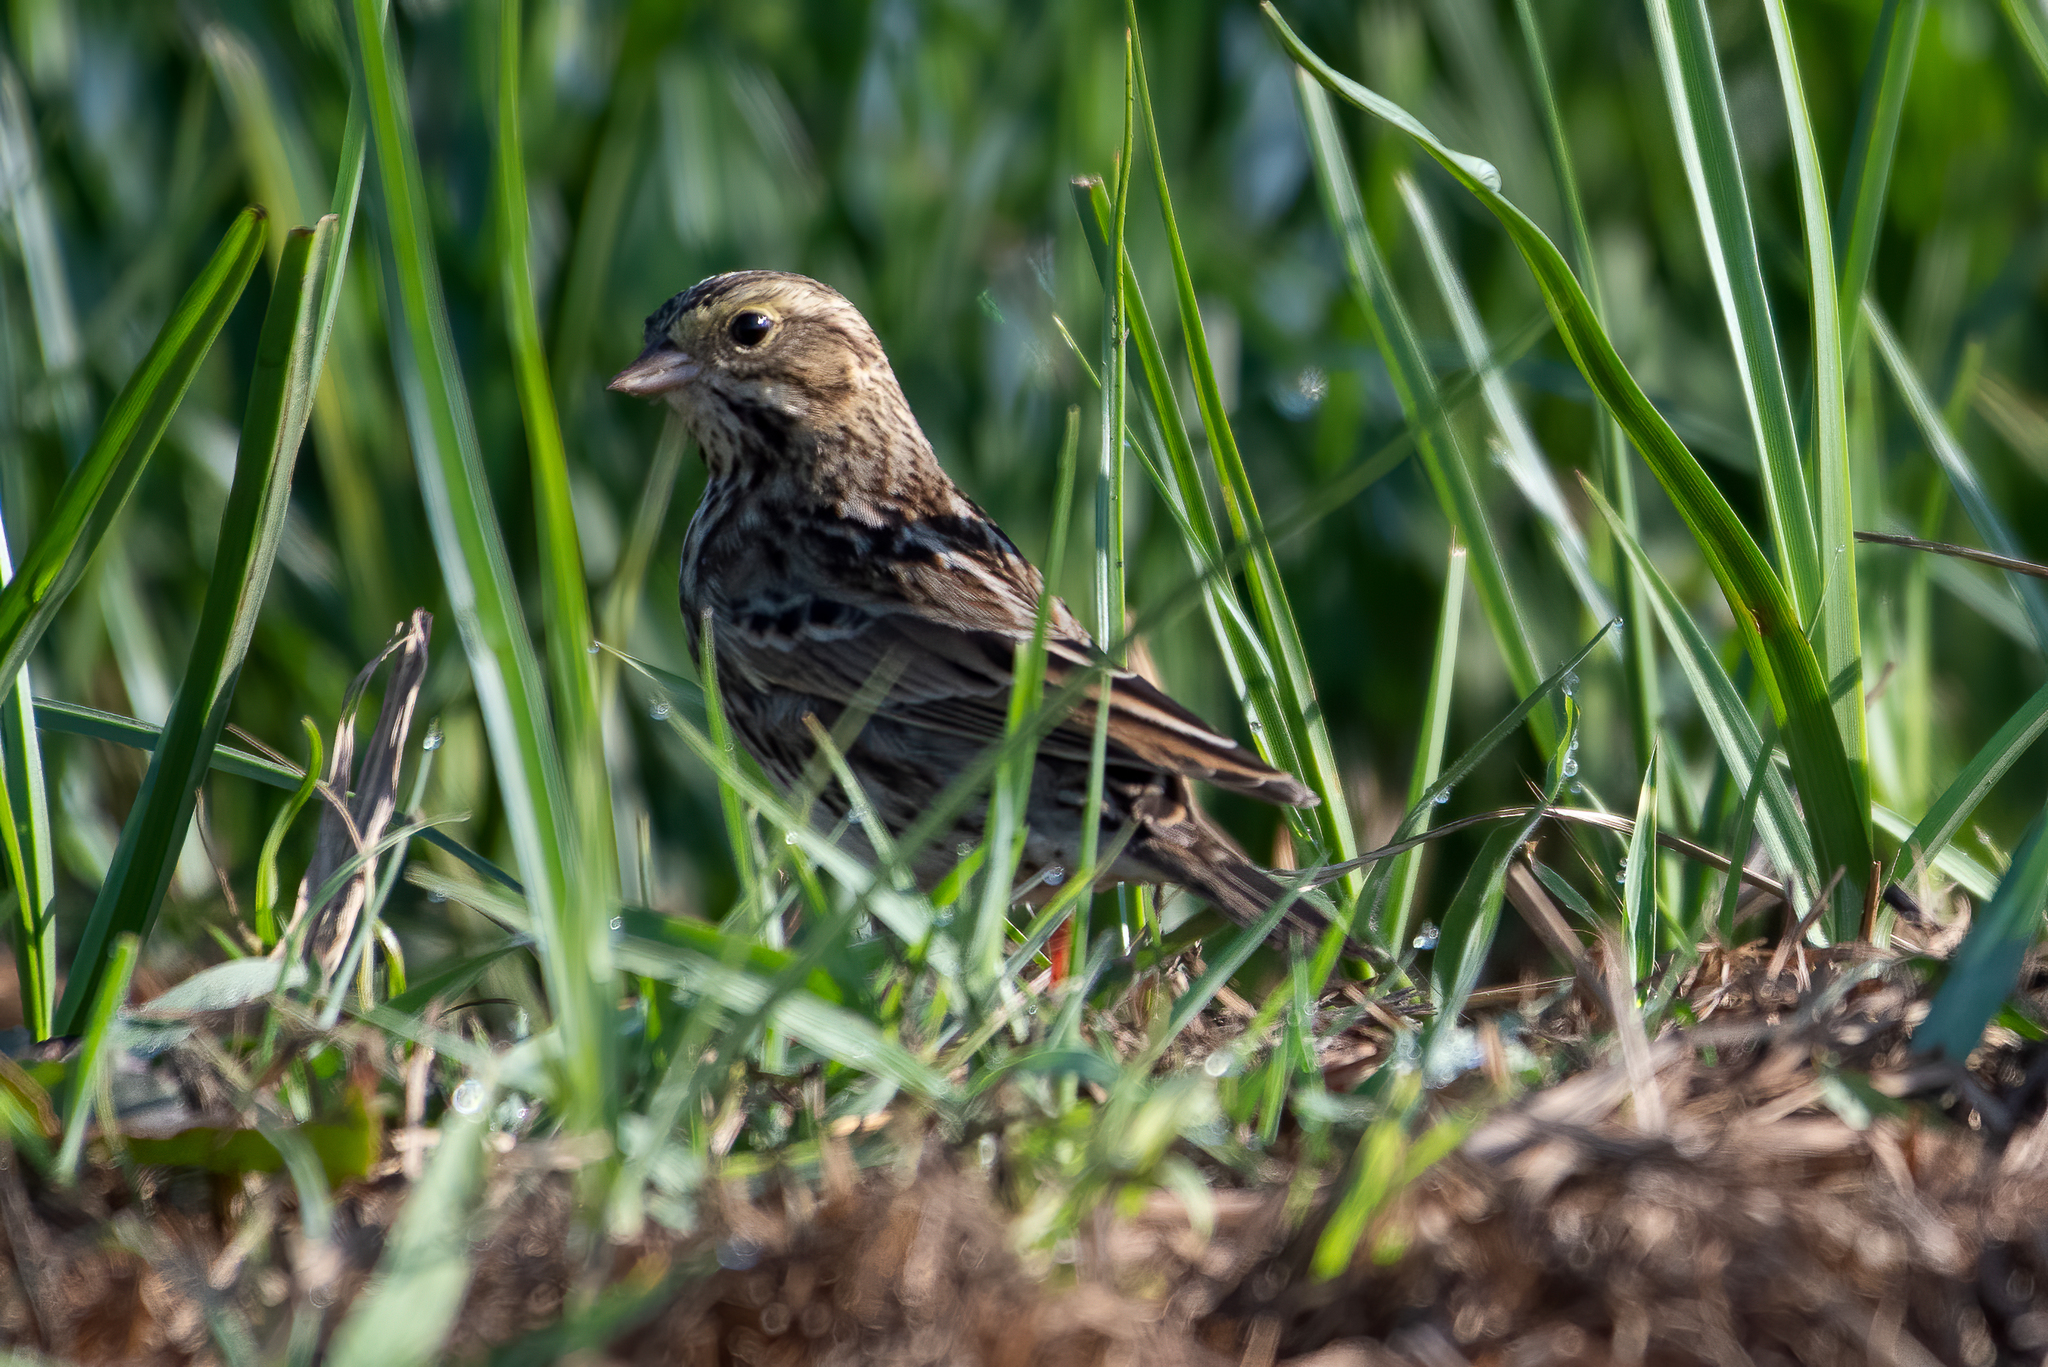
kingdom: Animalia
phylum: Chordata
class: Aves
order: Passeriformes
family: Passerellidae
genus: Passerculus
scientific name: Passerculus sandwichensis
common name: Savannah sparrow
